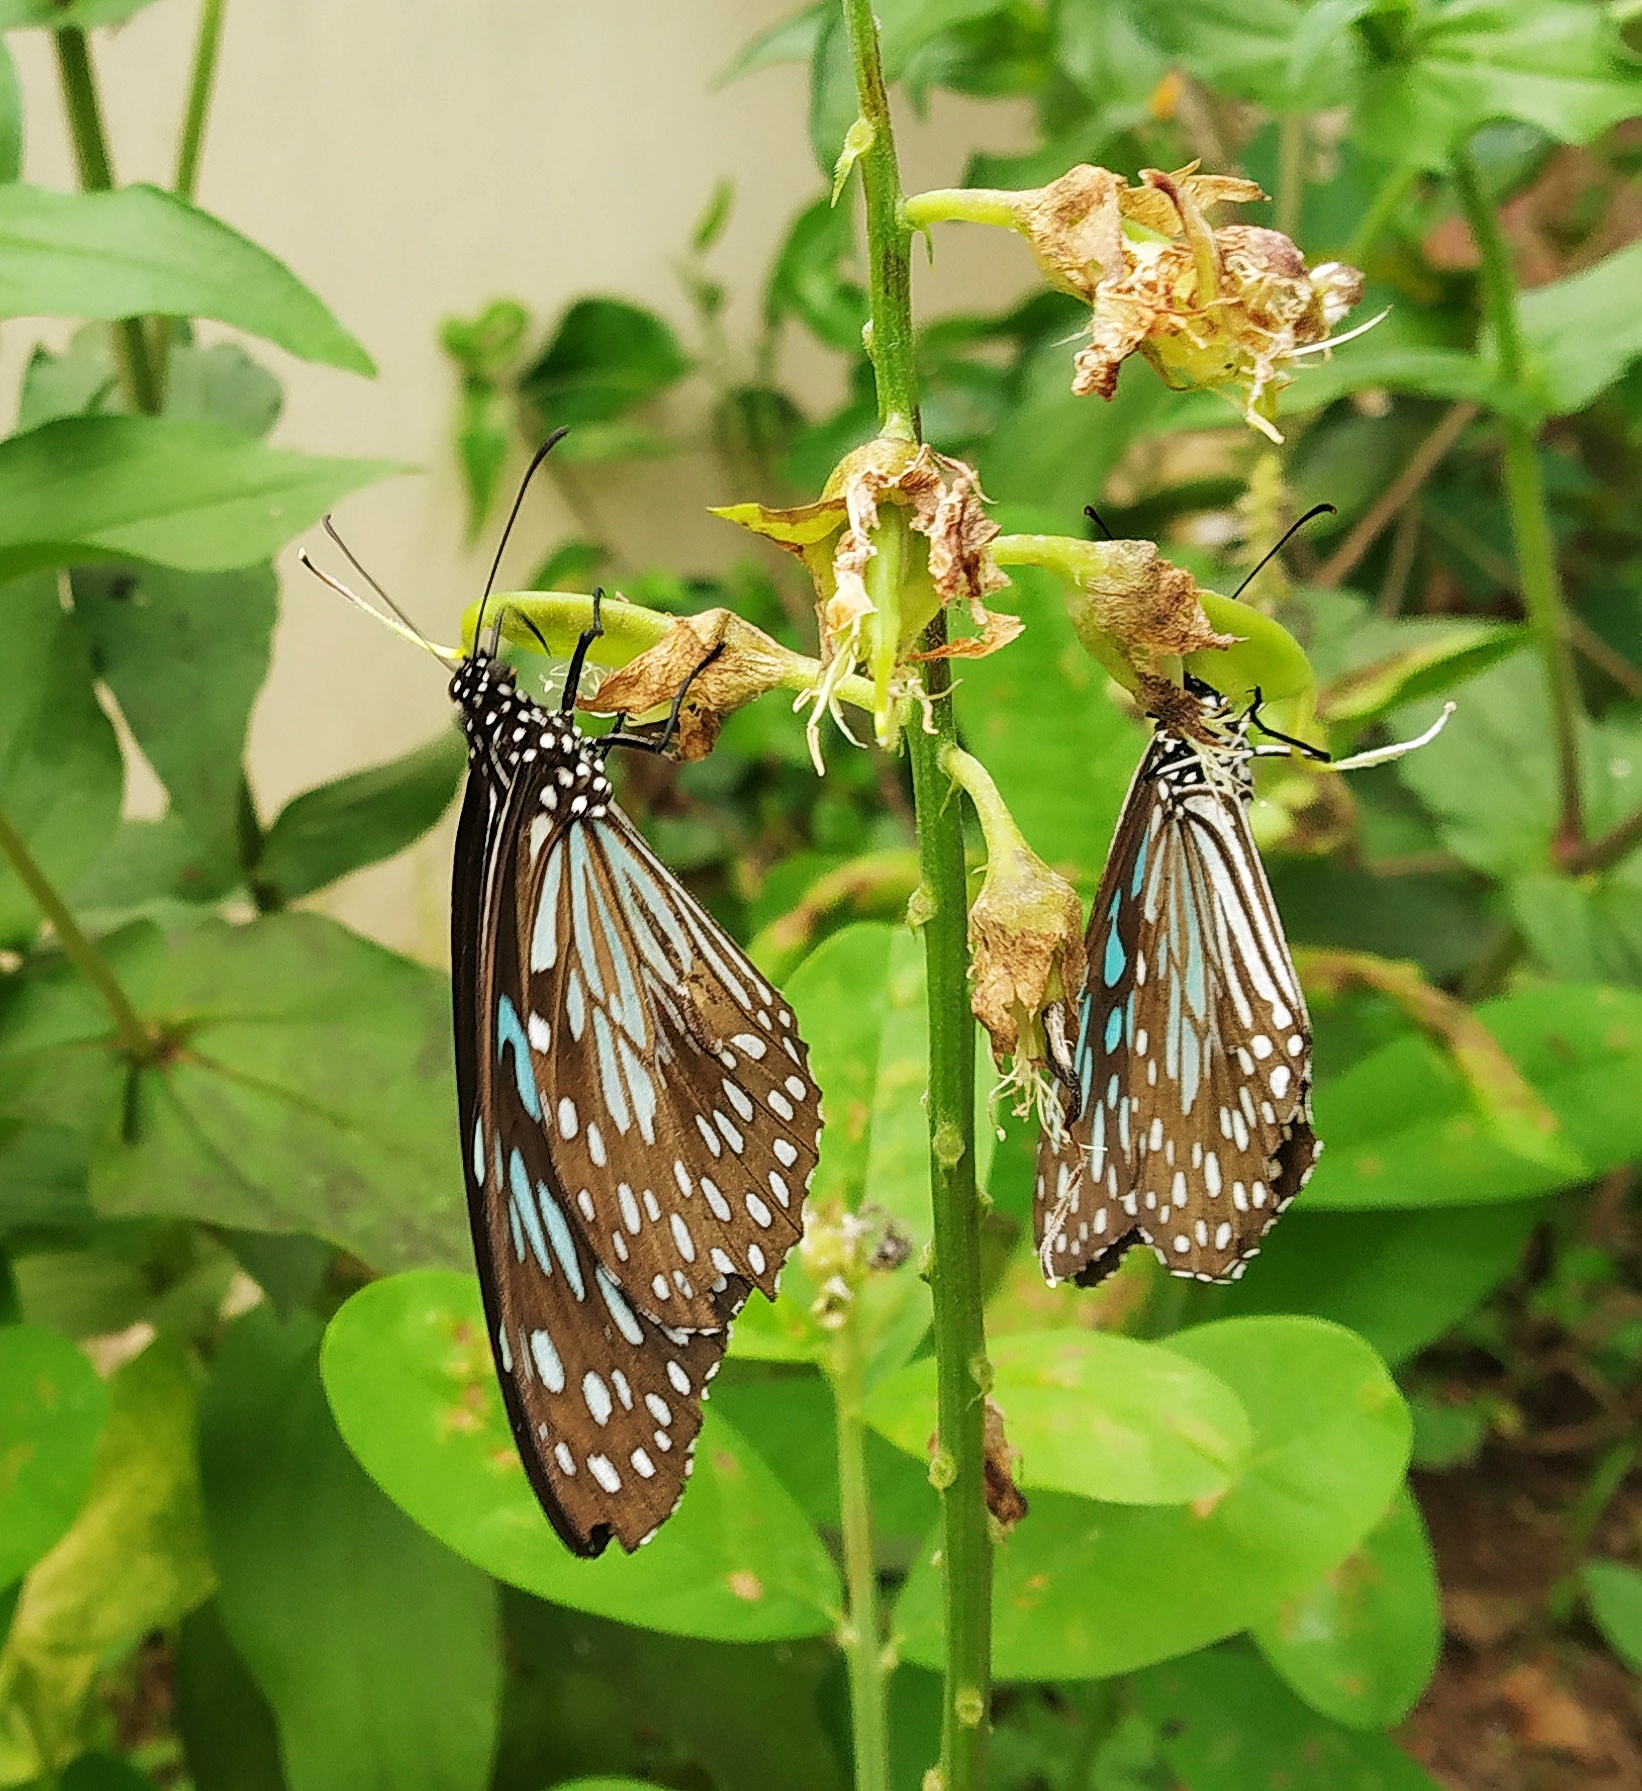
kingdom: Animalia
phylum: Arthropoda
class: Insecta
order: Lepidoptera
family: Nymphalidae
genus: Tirumala
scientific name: Tirumala septentrionis
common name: Dark blue tiger butterfly
